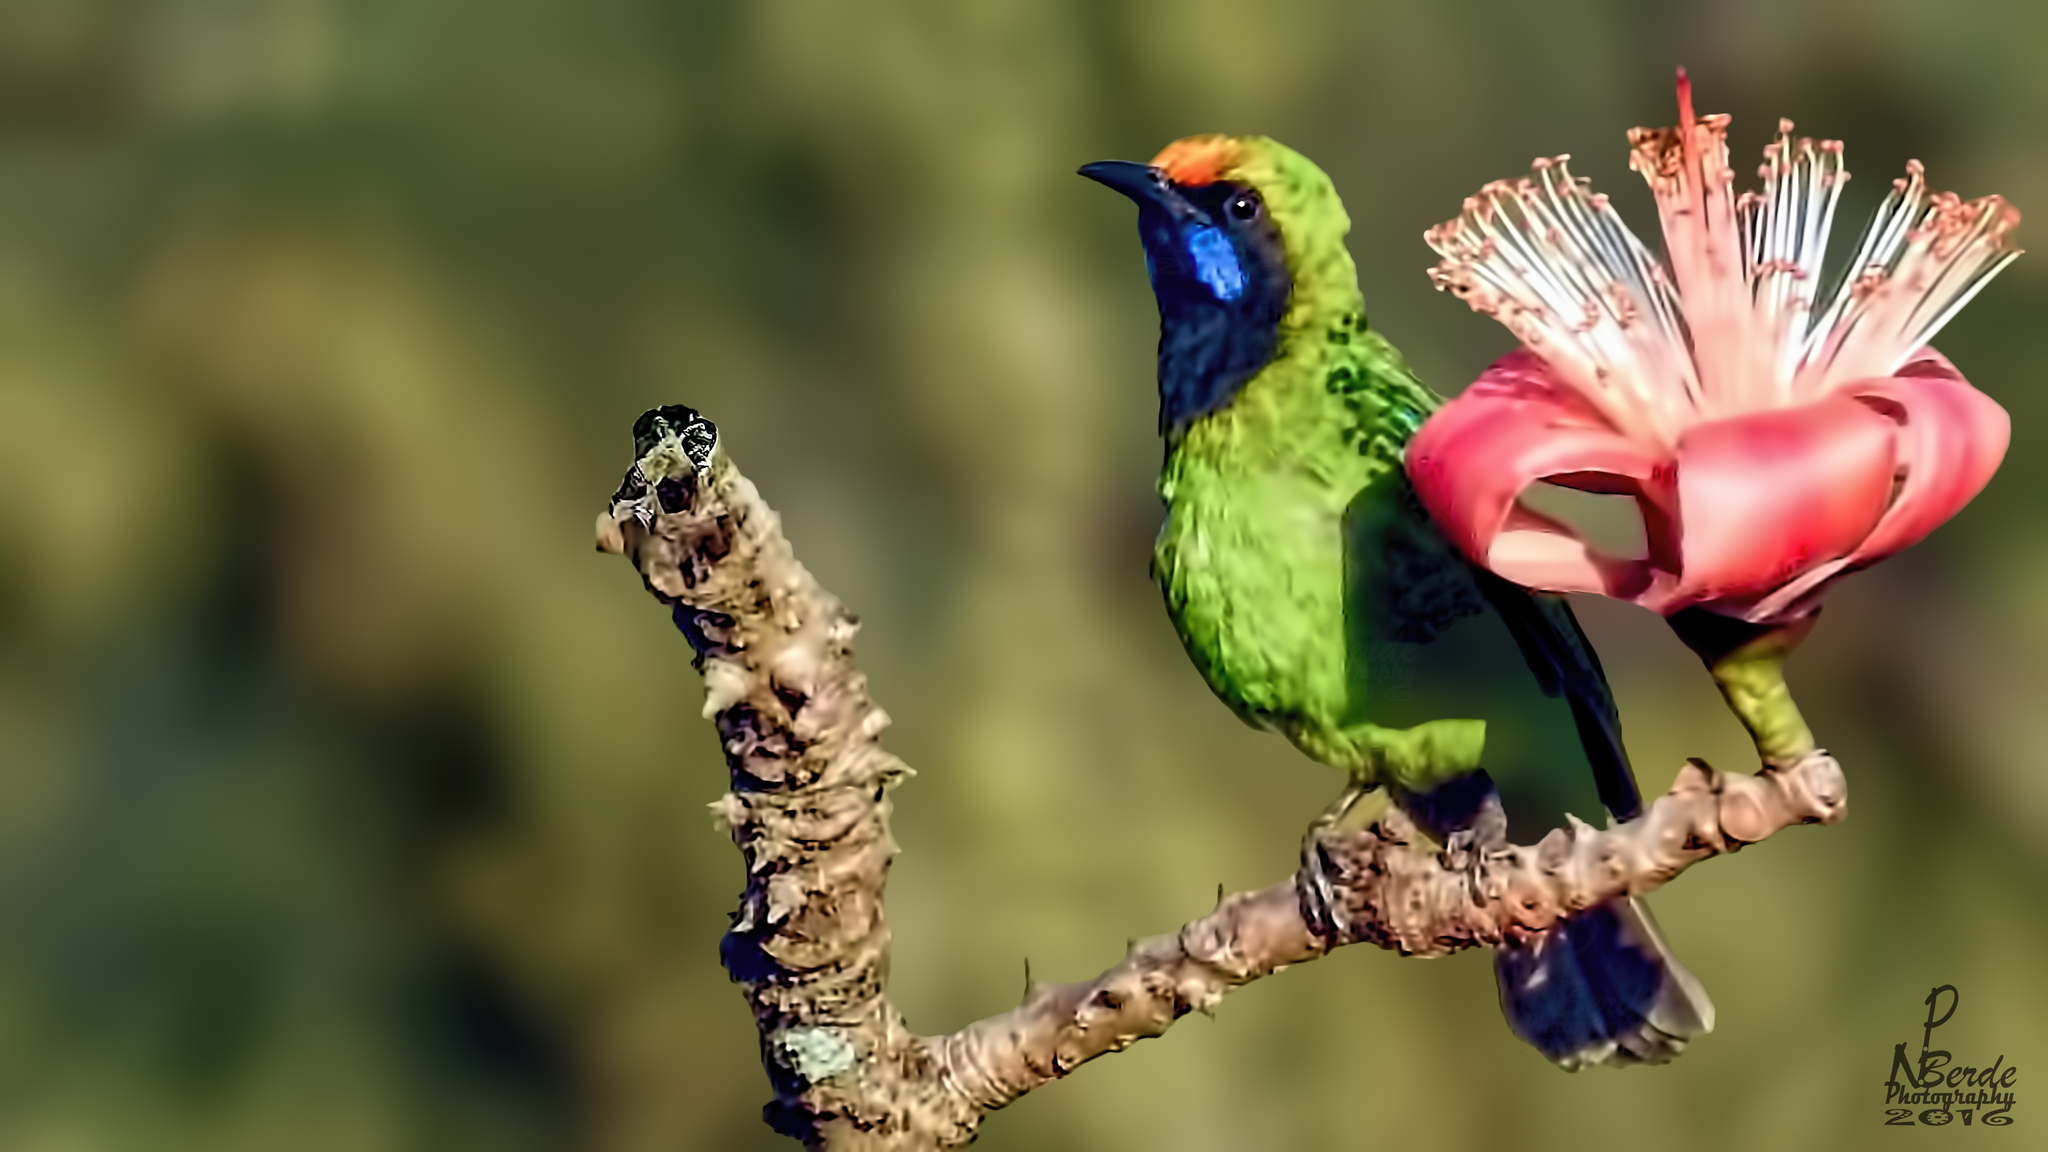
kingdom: Plantae
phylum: Tracheophyta
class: Magnoliopsida
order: Malvales
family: Malvaceae
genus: Bombax
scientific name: Bombax ceiba
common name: Northern-cottonwood
